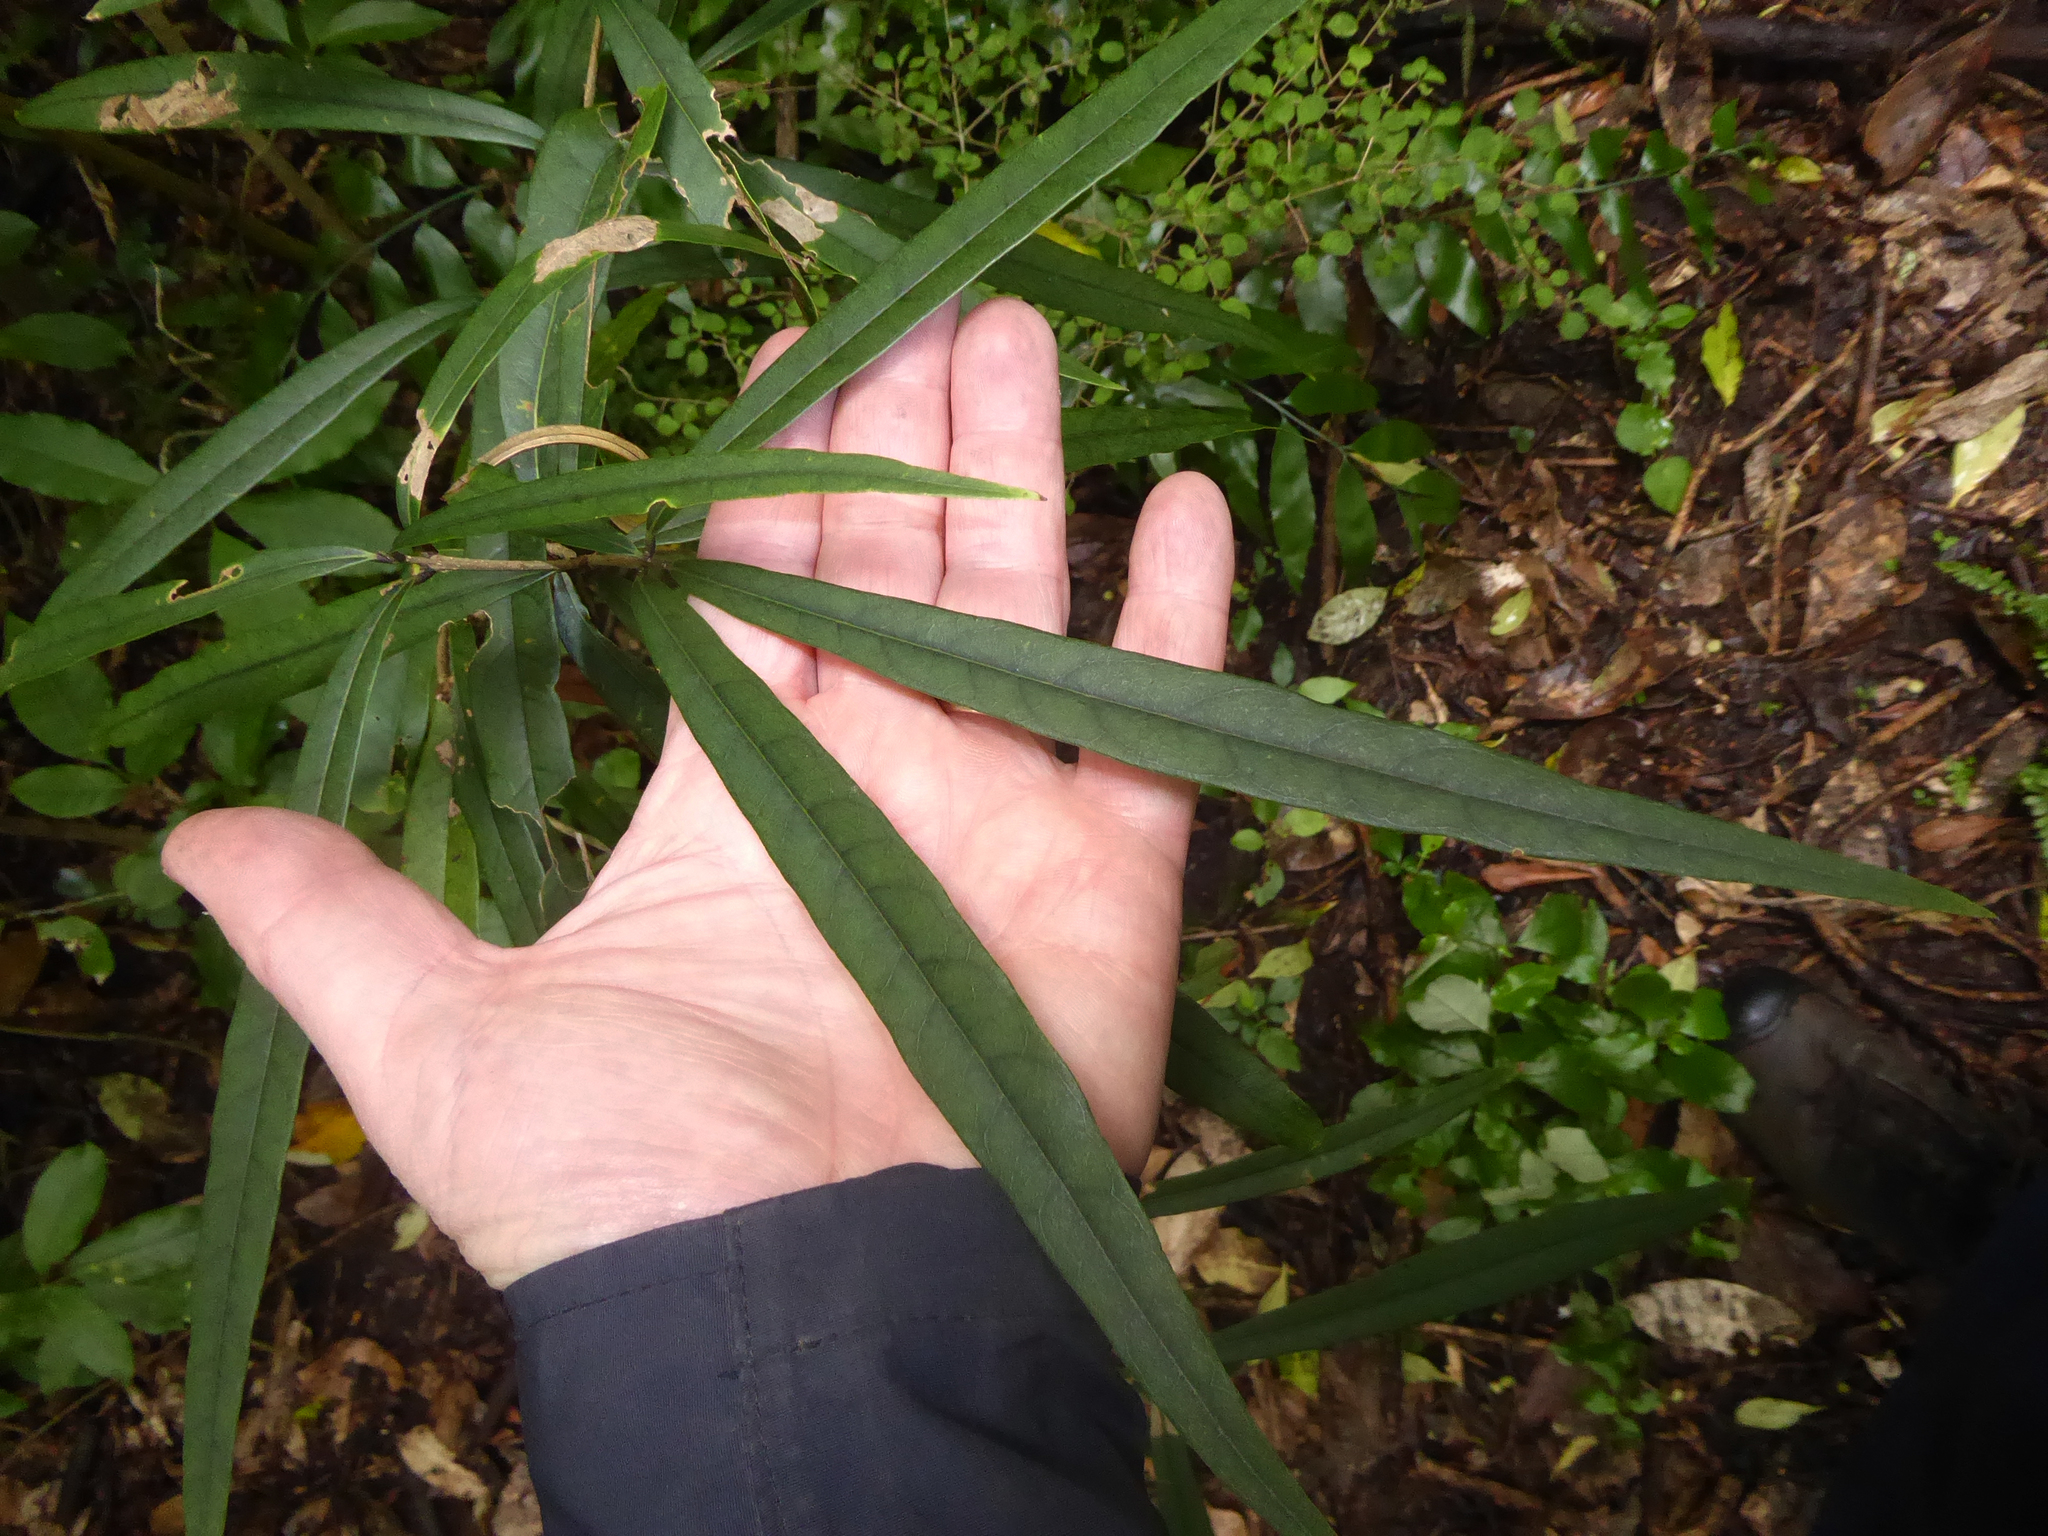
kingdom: Plantae
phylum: Tracheophyta
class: Magnoliopsida
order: Lamiales
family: Oleaceae
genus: Nestegis
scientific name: Nestegis cunninghamii
